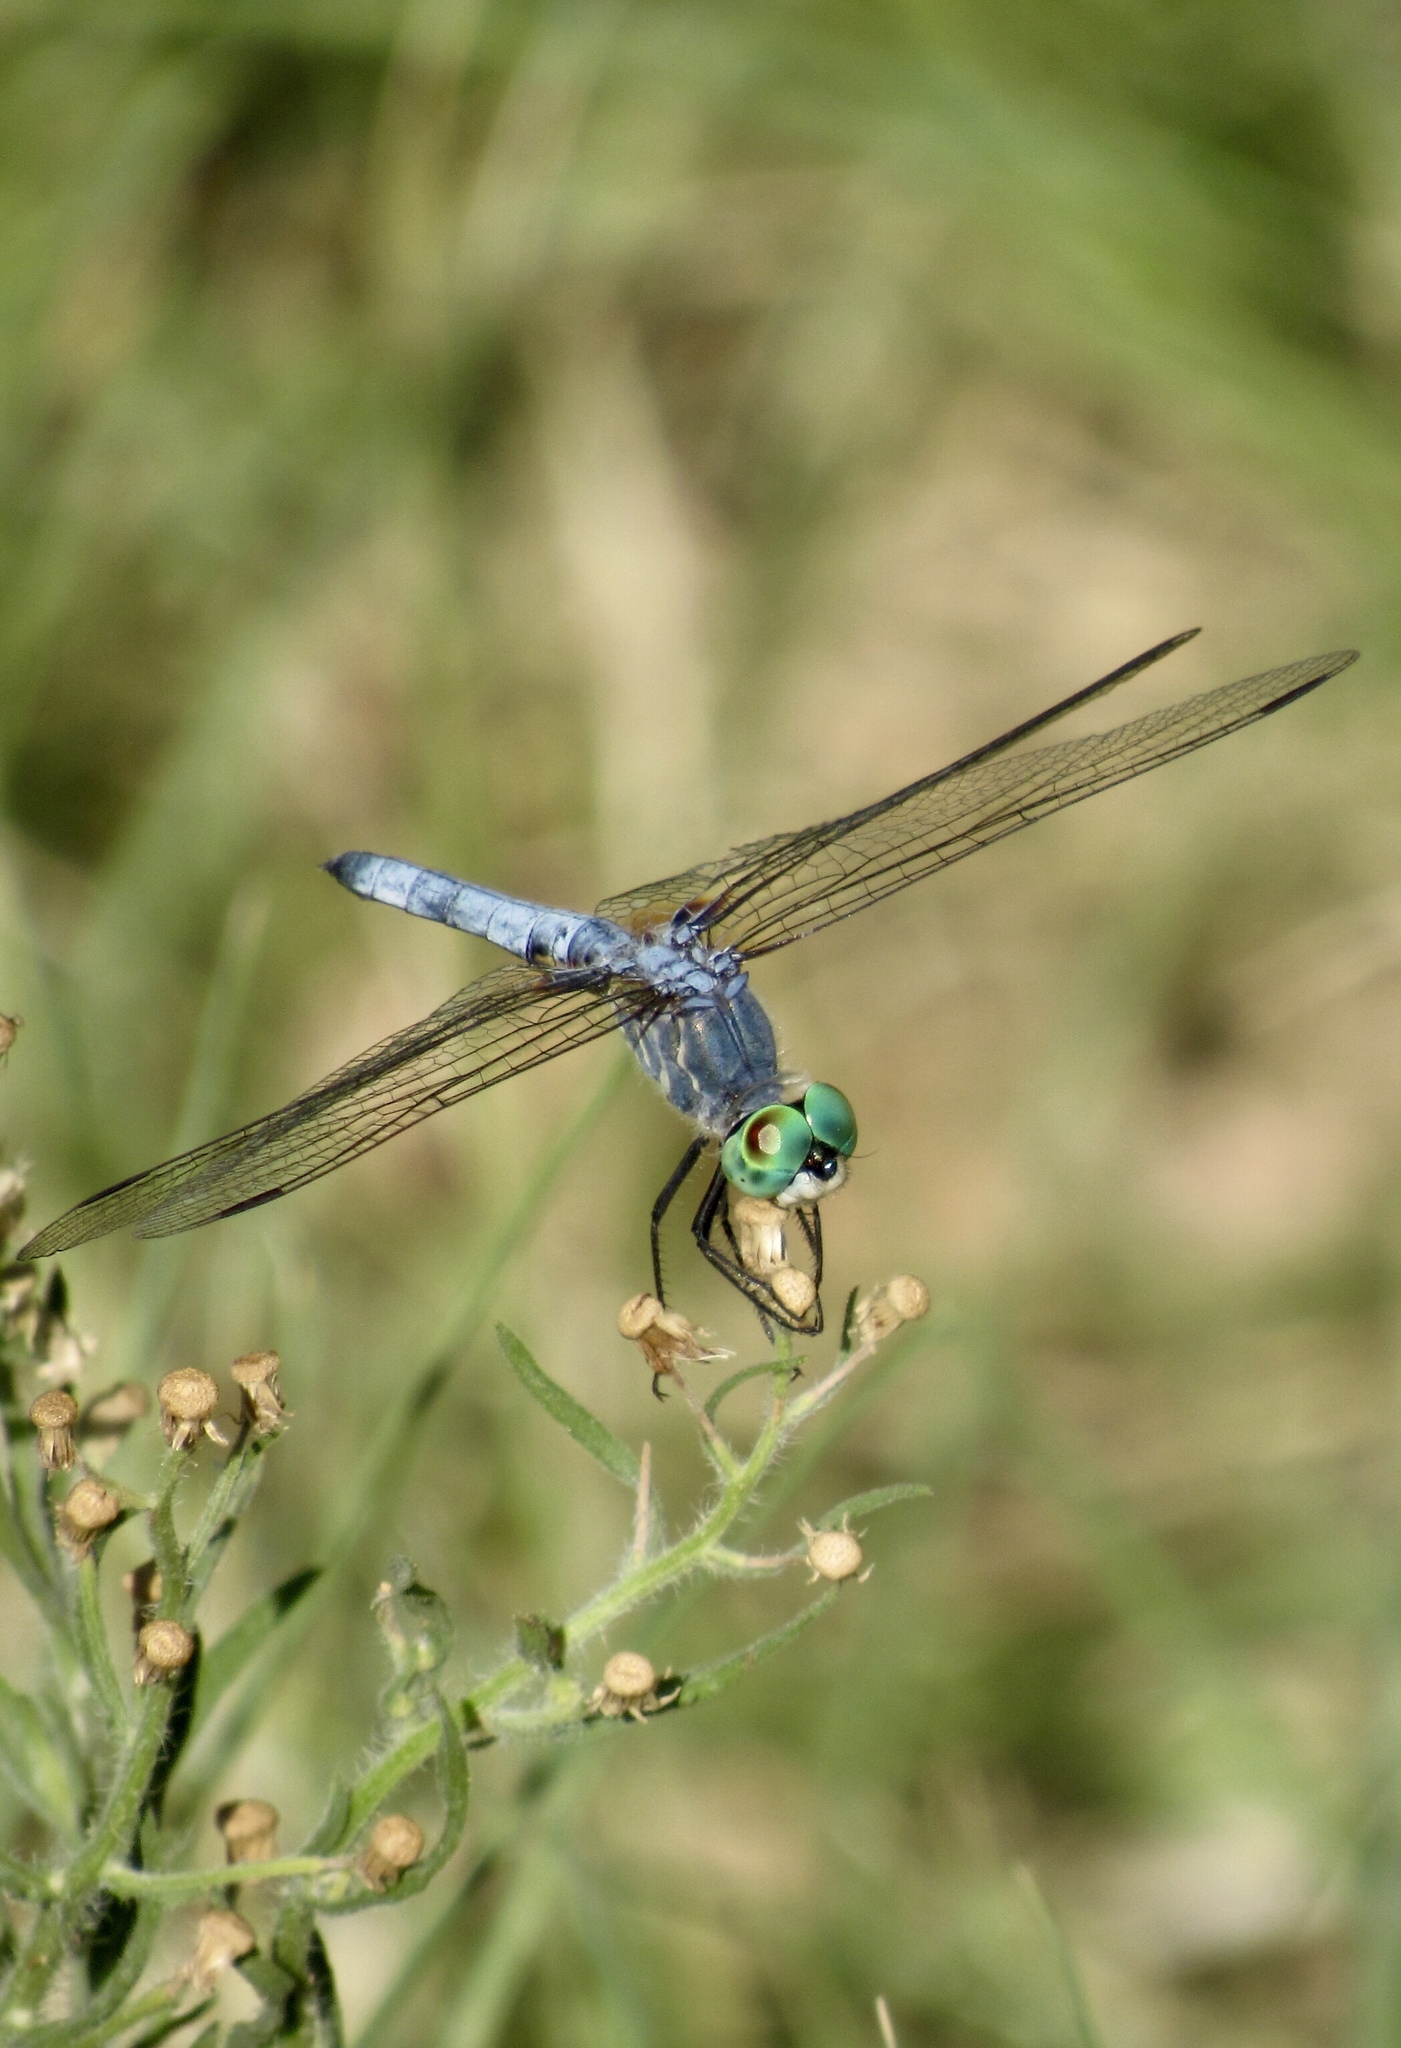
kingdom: Animalia
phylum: Arthropoda
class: Insecta
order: Odonata
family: Libellulidae
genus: Pachydiplax
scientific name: Pachydiplax longipennis
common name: Blue dasher
